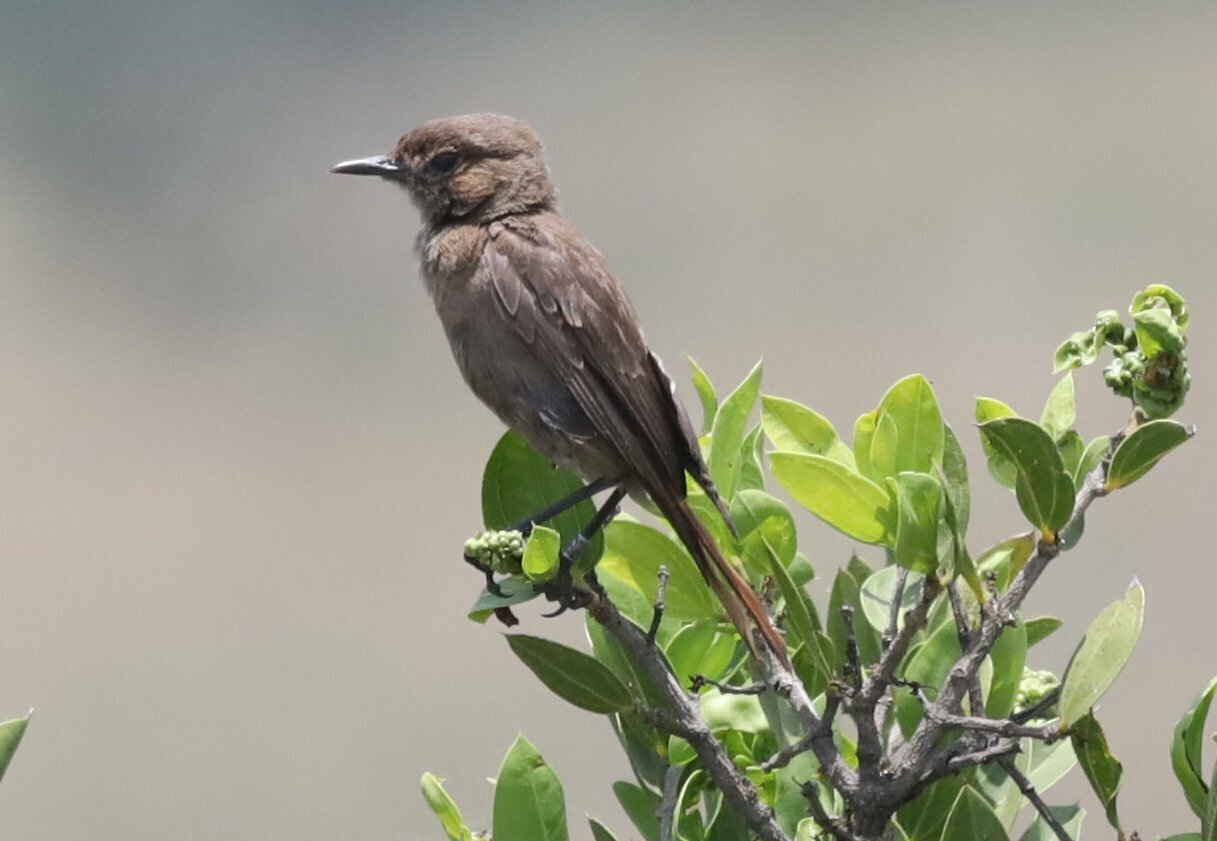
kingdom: Animalia
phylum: Chordata
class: Aves
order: Passeriformes
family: Muscicapidae
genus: Oenanthe
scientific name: Oenanthe familiaris
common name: Familiar chat
